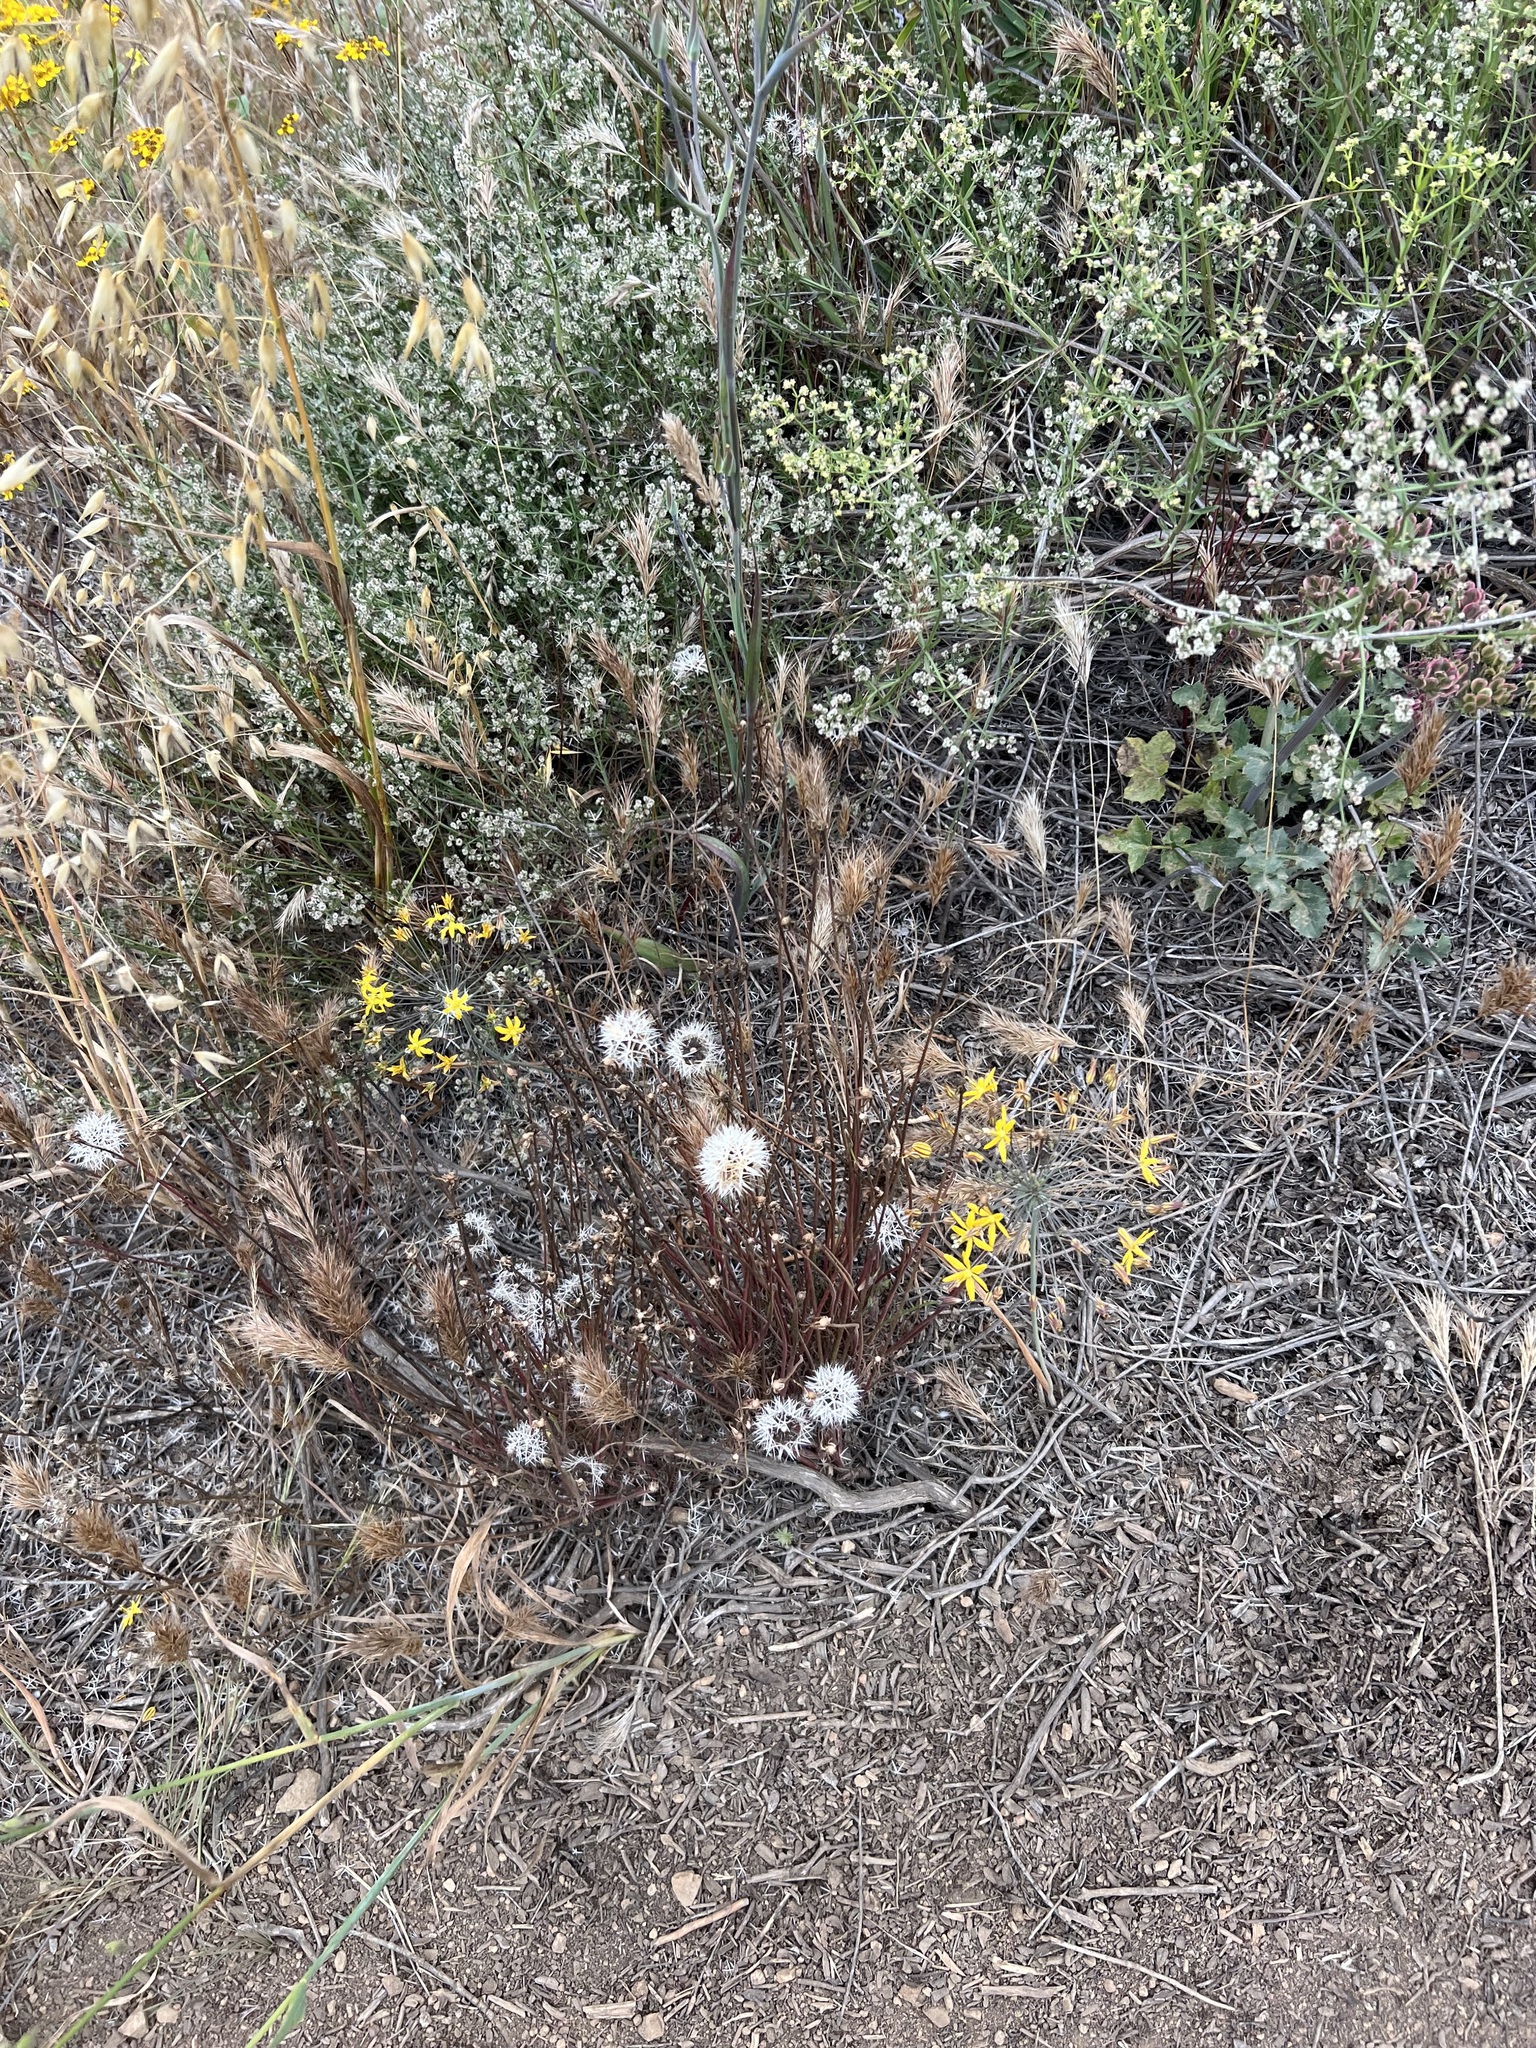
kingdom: Plantae
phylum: Tracheophyta
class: Liliopsida
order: Asparagales
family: Asparagaceae
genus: Bloomeria
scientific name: Bloomeria crocea
